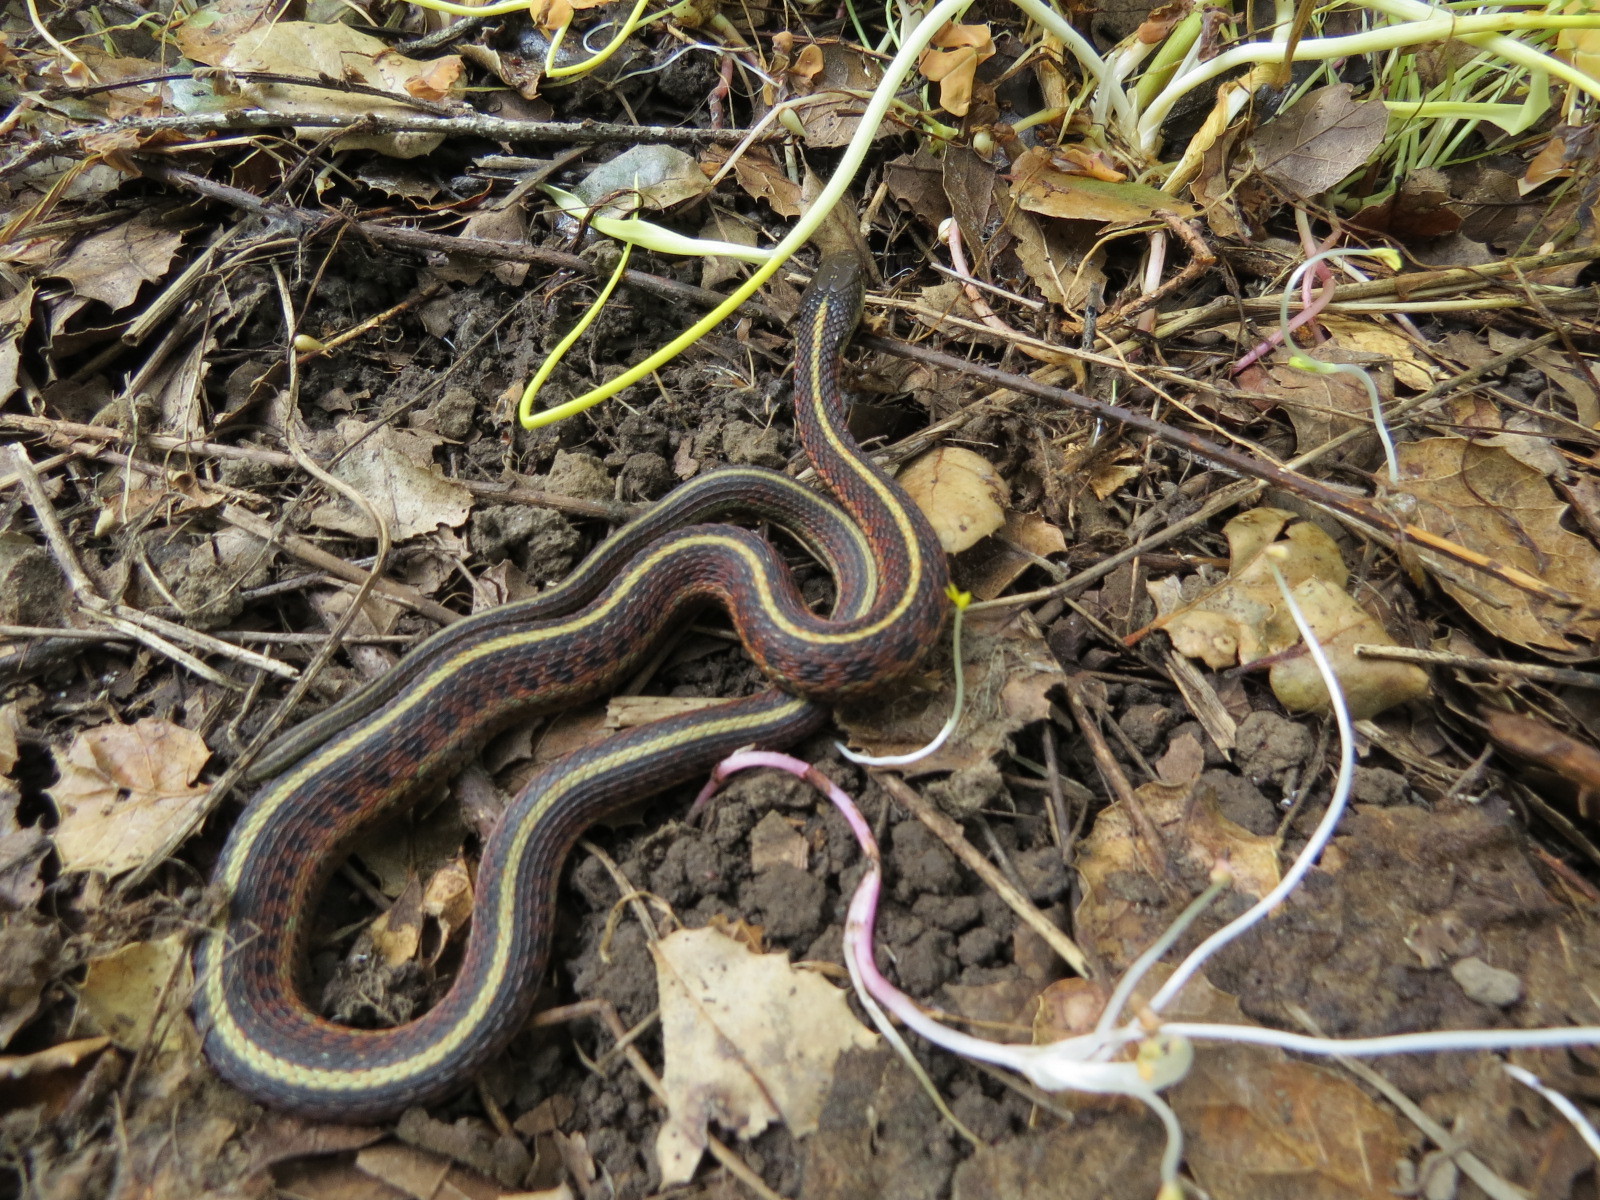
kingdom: Animalia
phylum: Chordata
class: Squamata
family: Colubridae
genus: Thamnophis
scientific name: Thamnophis elegans
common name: Western terrestrial garter snake
